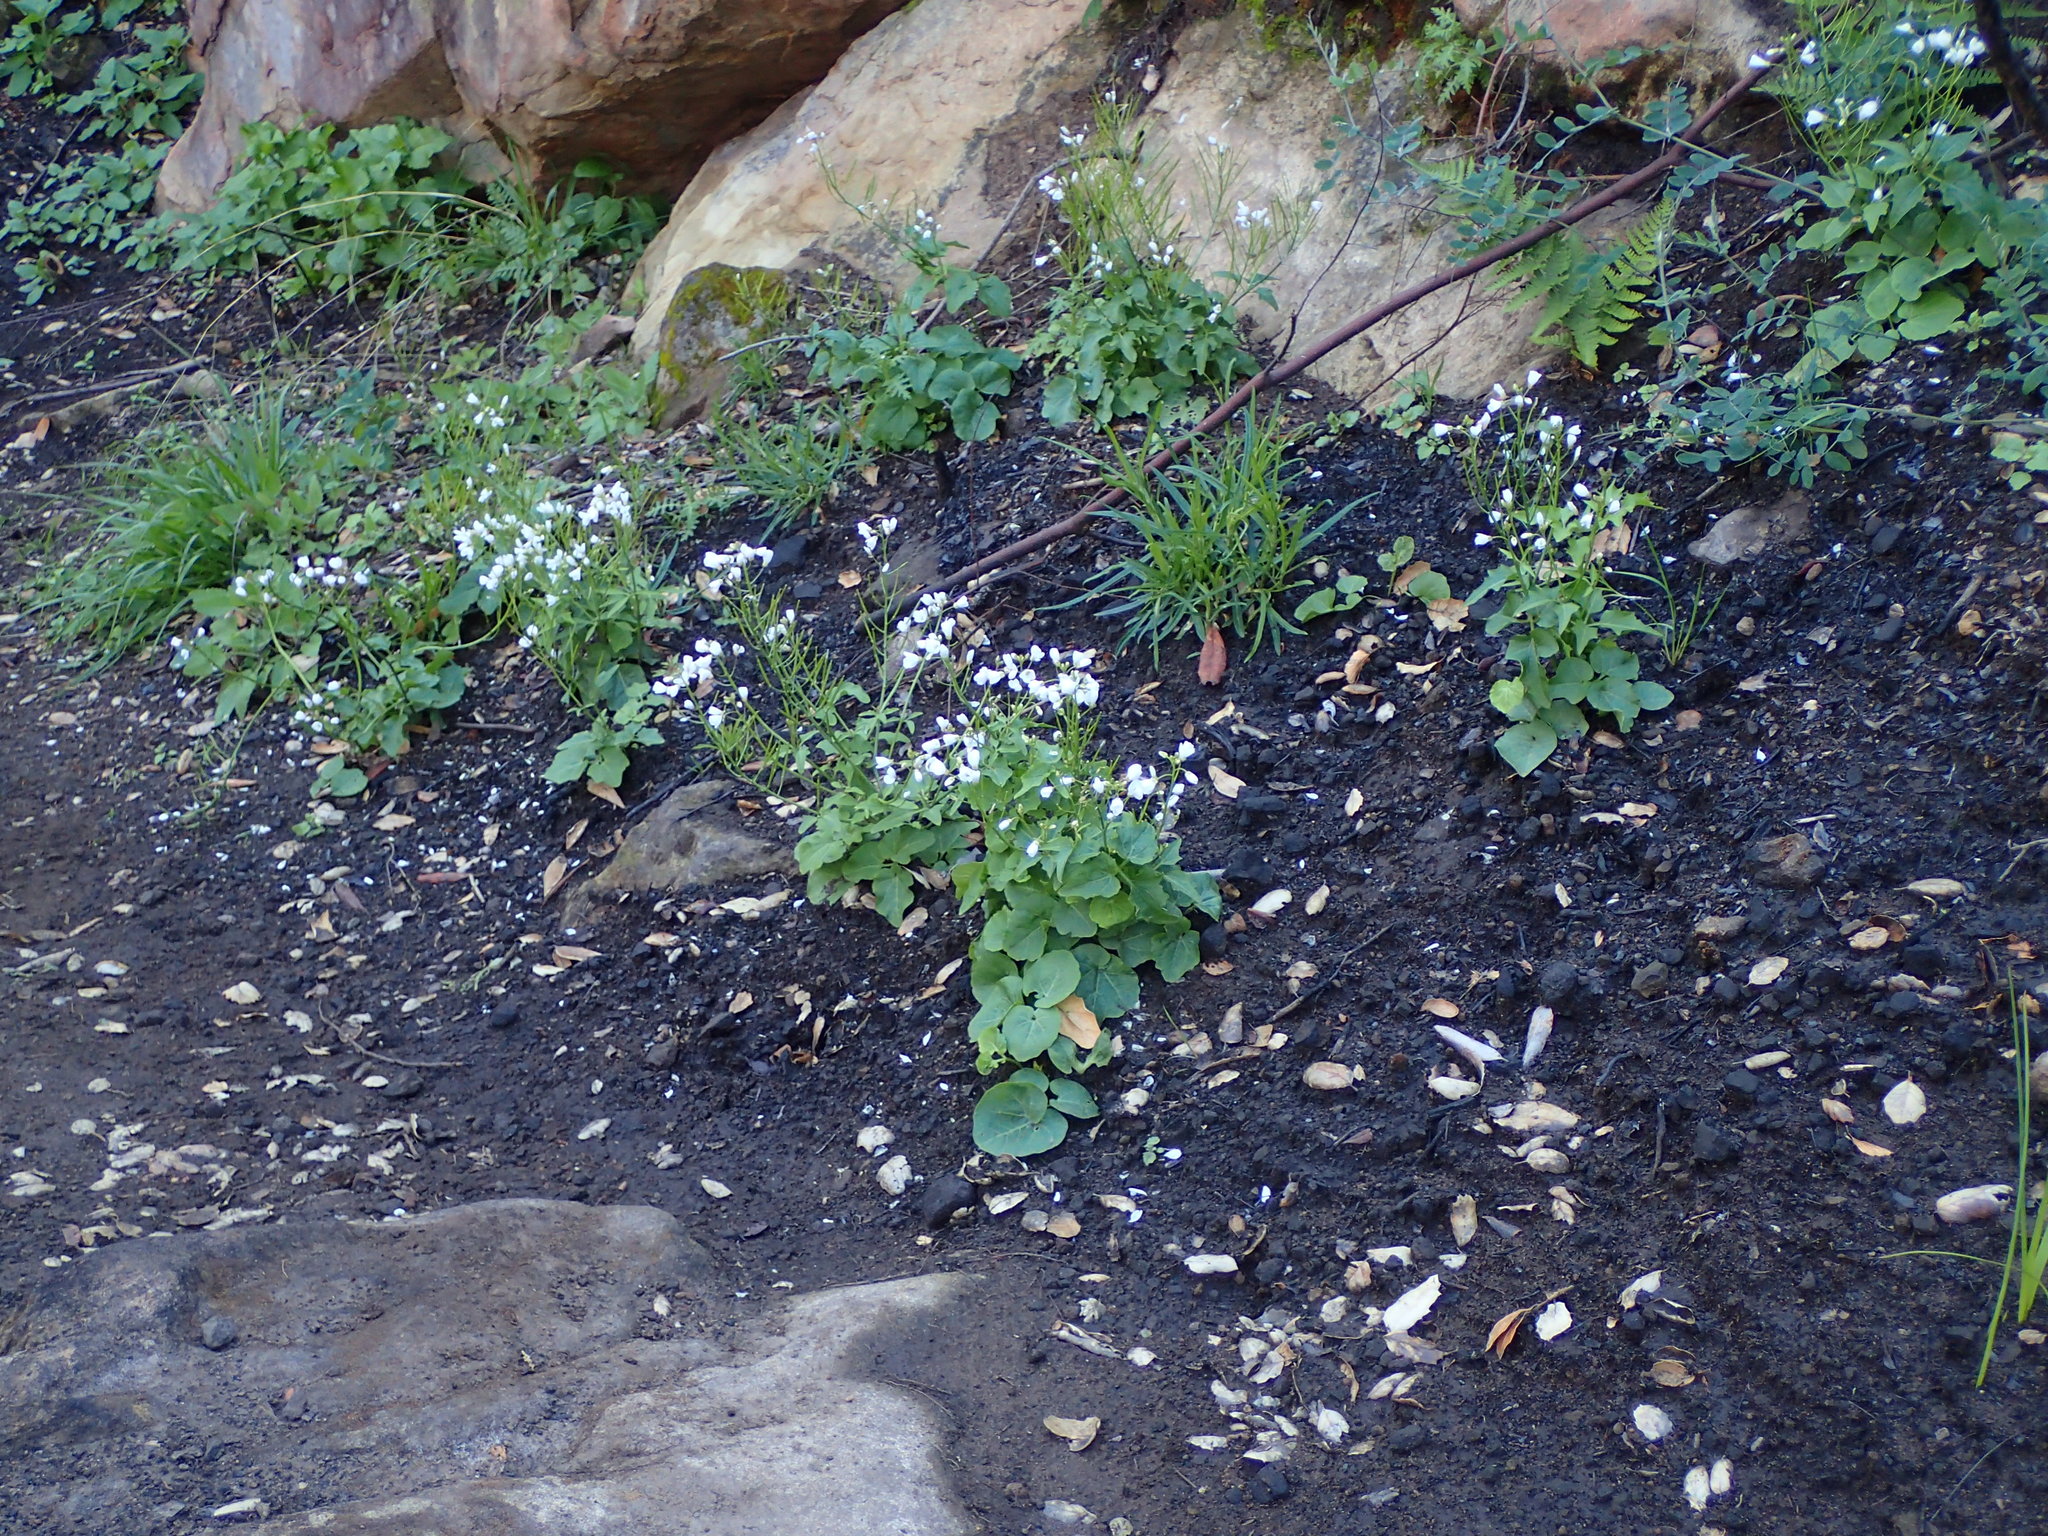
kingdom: Plantae
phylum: Tracheophyta
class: Magnoliopsida
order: Brassicales
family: Brassicaceae
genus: Cardamine
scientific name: Cardamine californica
